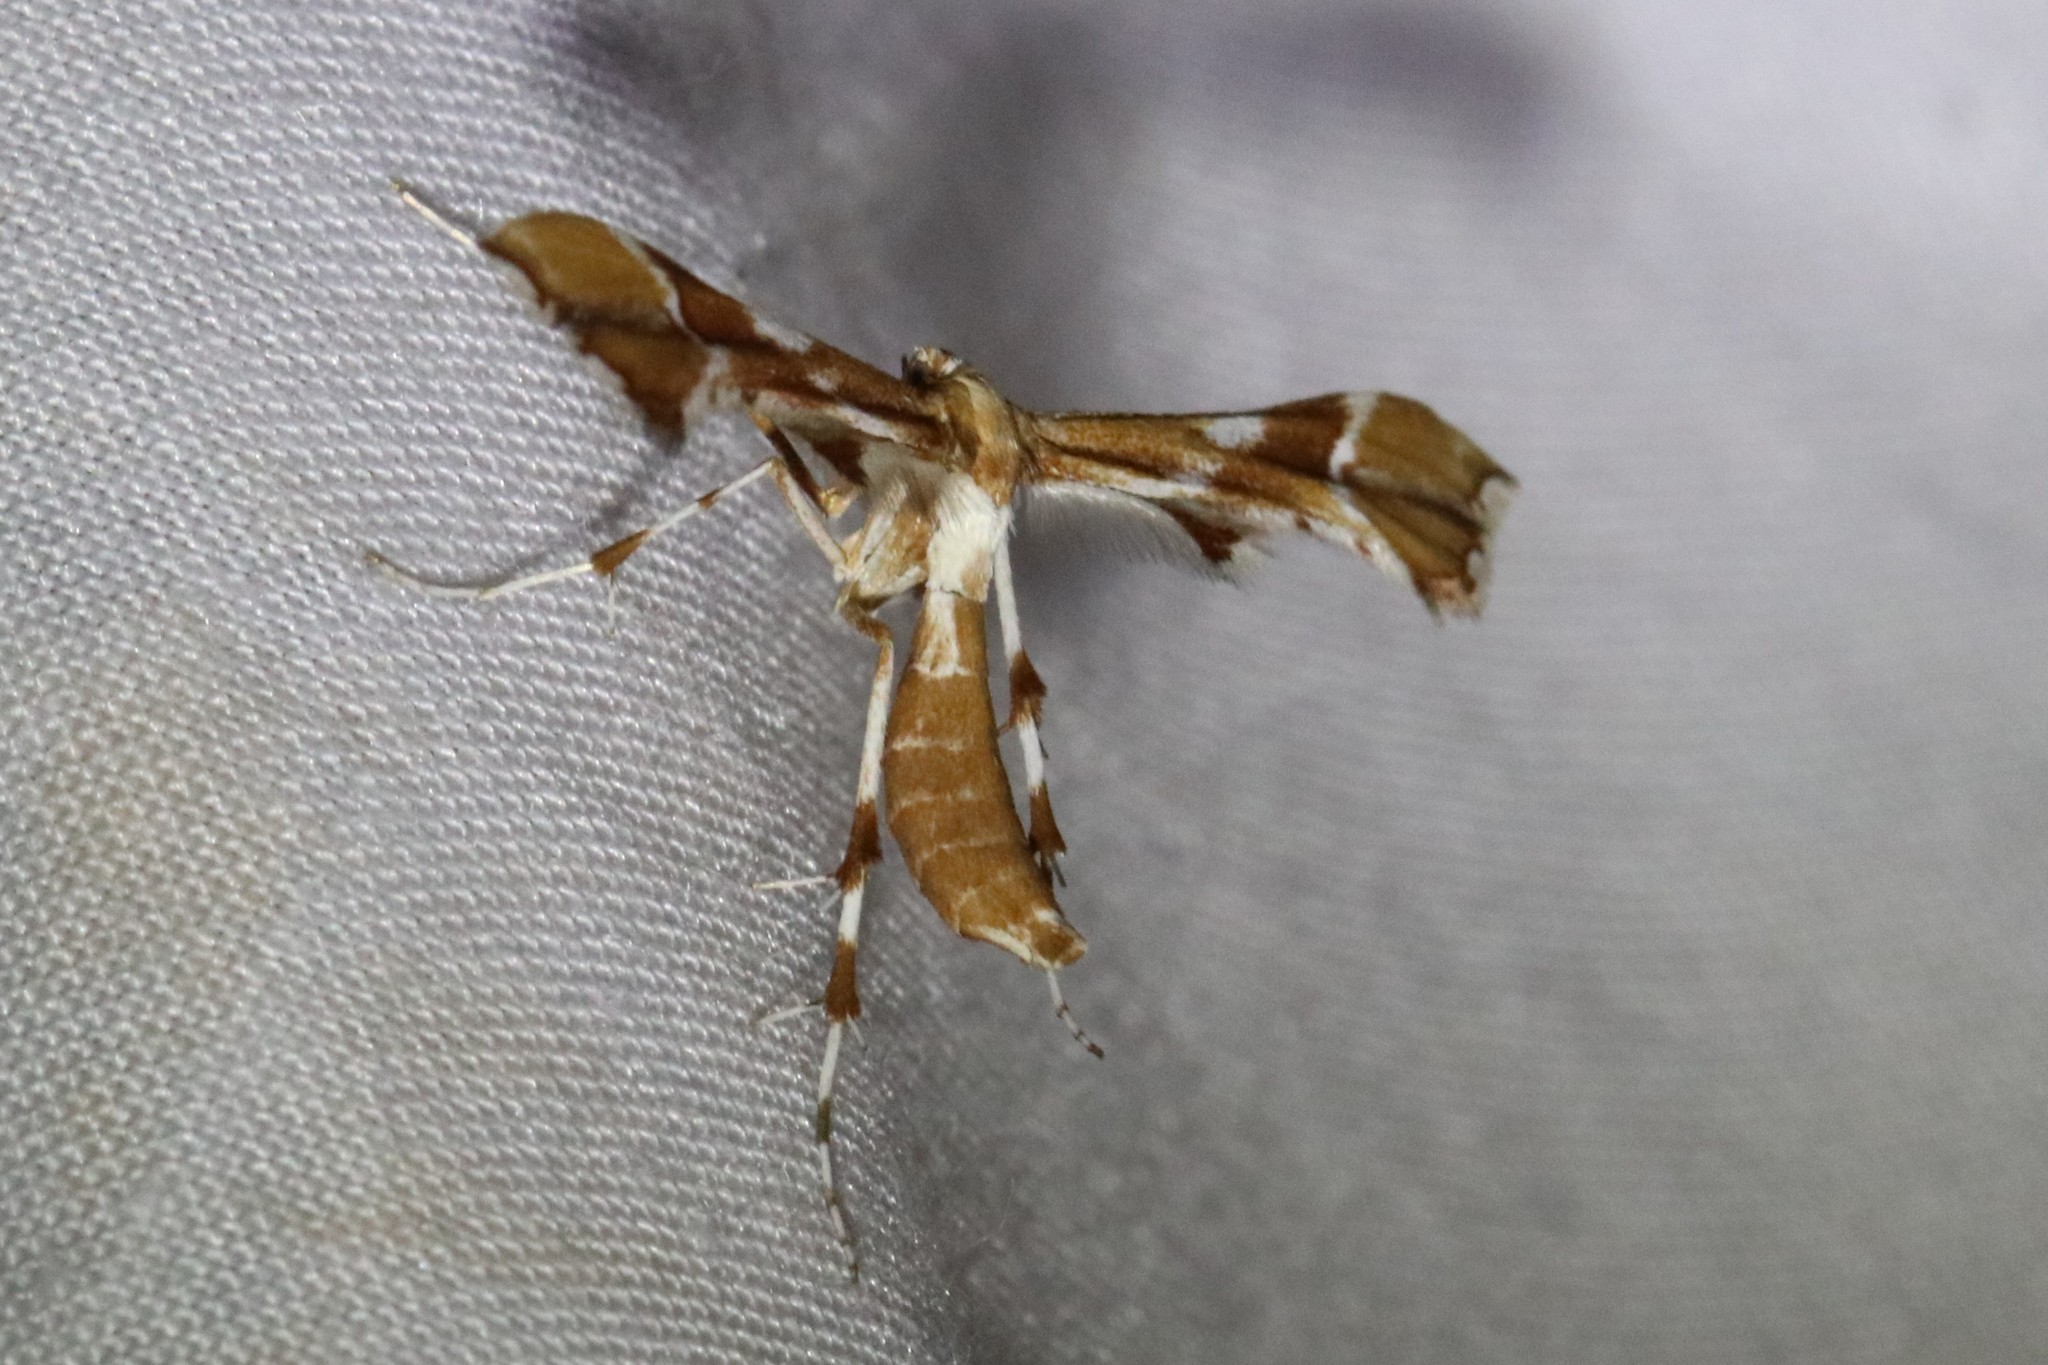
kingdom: Animalia
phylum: Arthropoda
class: Insecta
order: Lepidoptera
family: Pterophoridae
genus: Cnaemidophorus
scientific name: Cnaemidophorus rhododactyla
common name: Rose plume
